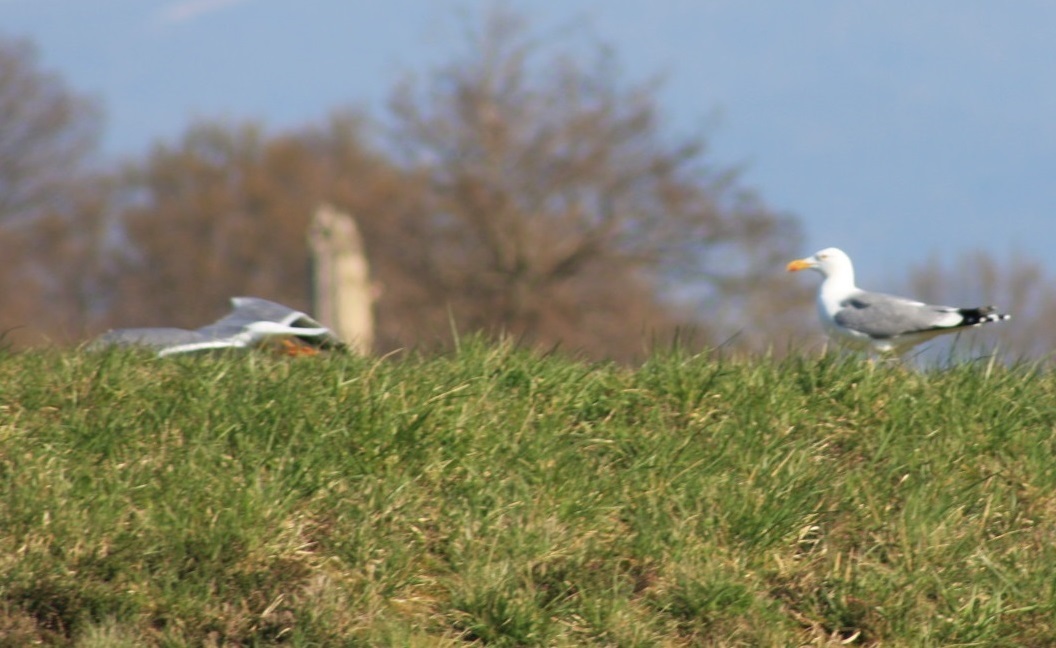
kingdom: Animalia
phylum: Chordata
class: Aves
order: Charadriiformes
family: Laridae
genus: Larus
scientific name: Larus michahellis
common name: Yellow-legged gull
